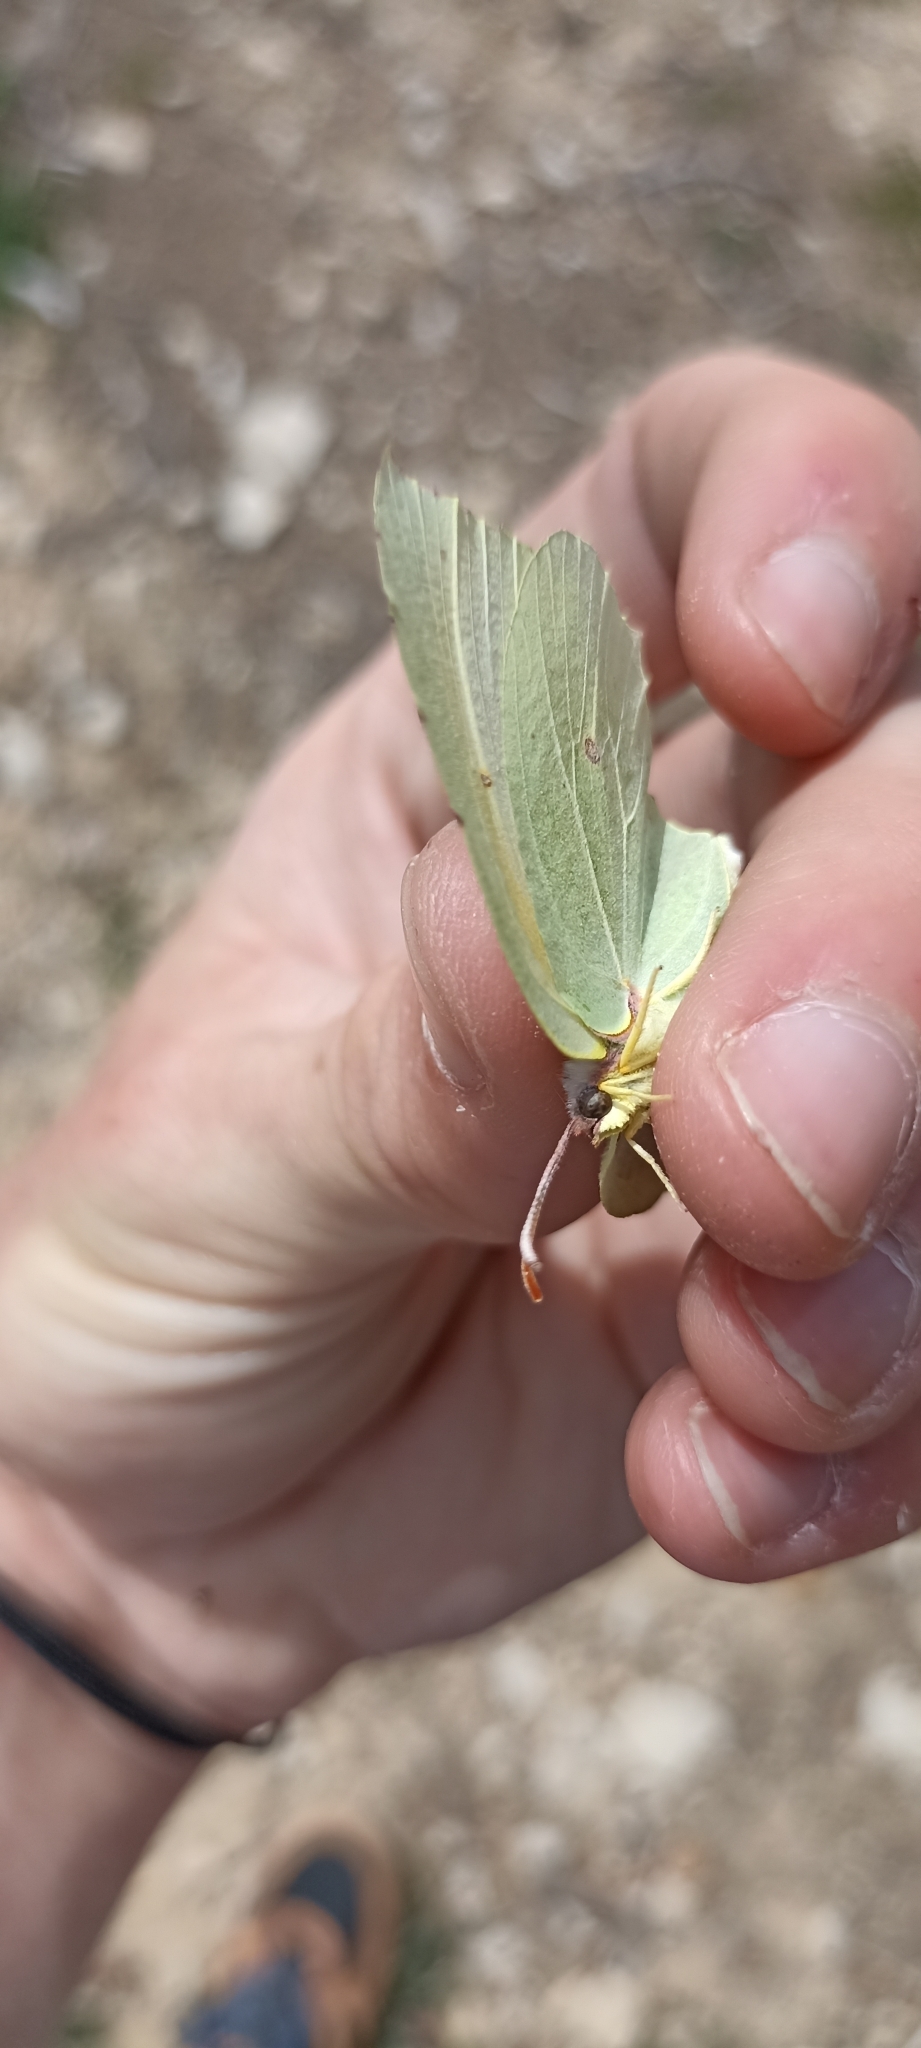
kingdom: Animalia
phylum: Arthropoda
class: Insecta
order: Lepidoptera
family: Pieridae
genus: Gonepteryx
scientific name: Gonepteryx cleopatra
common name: Cleopatra
